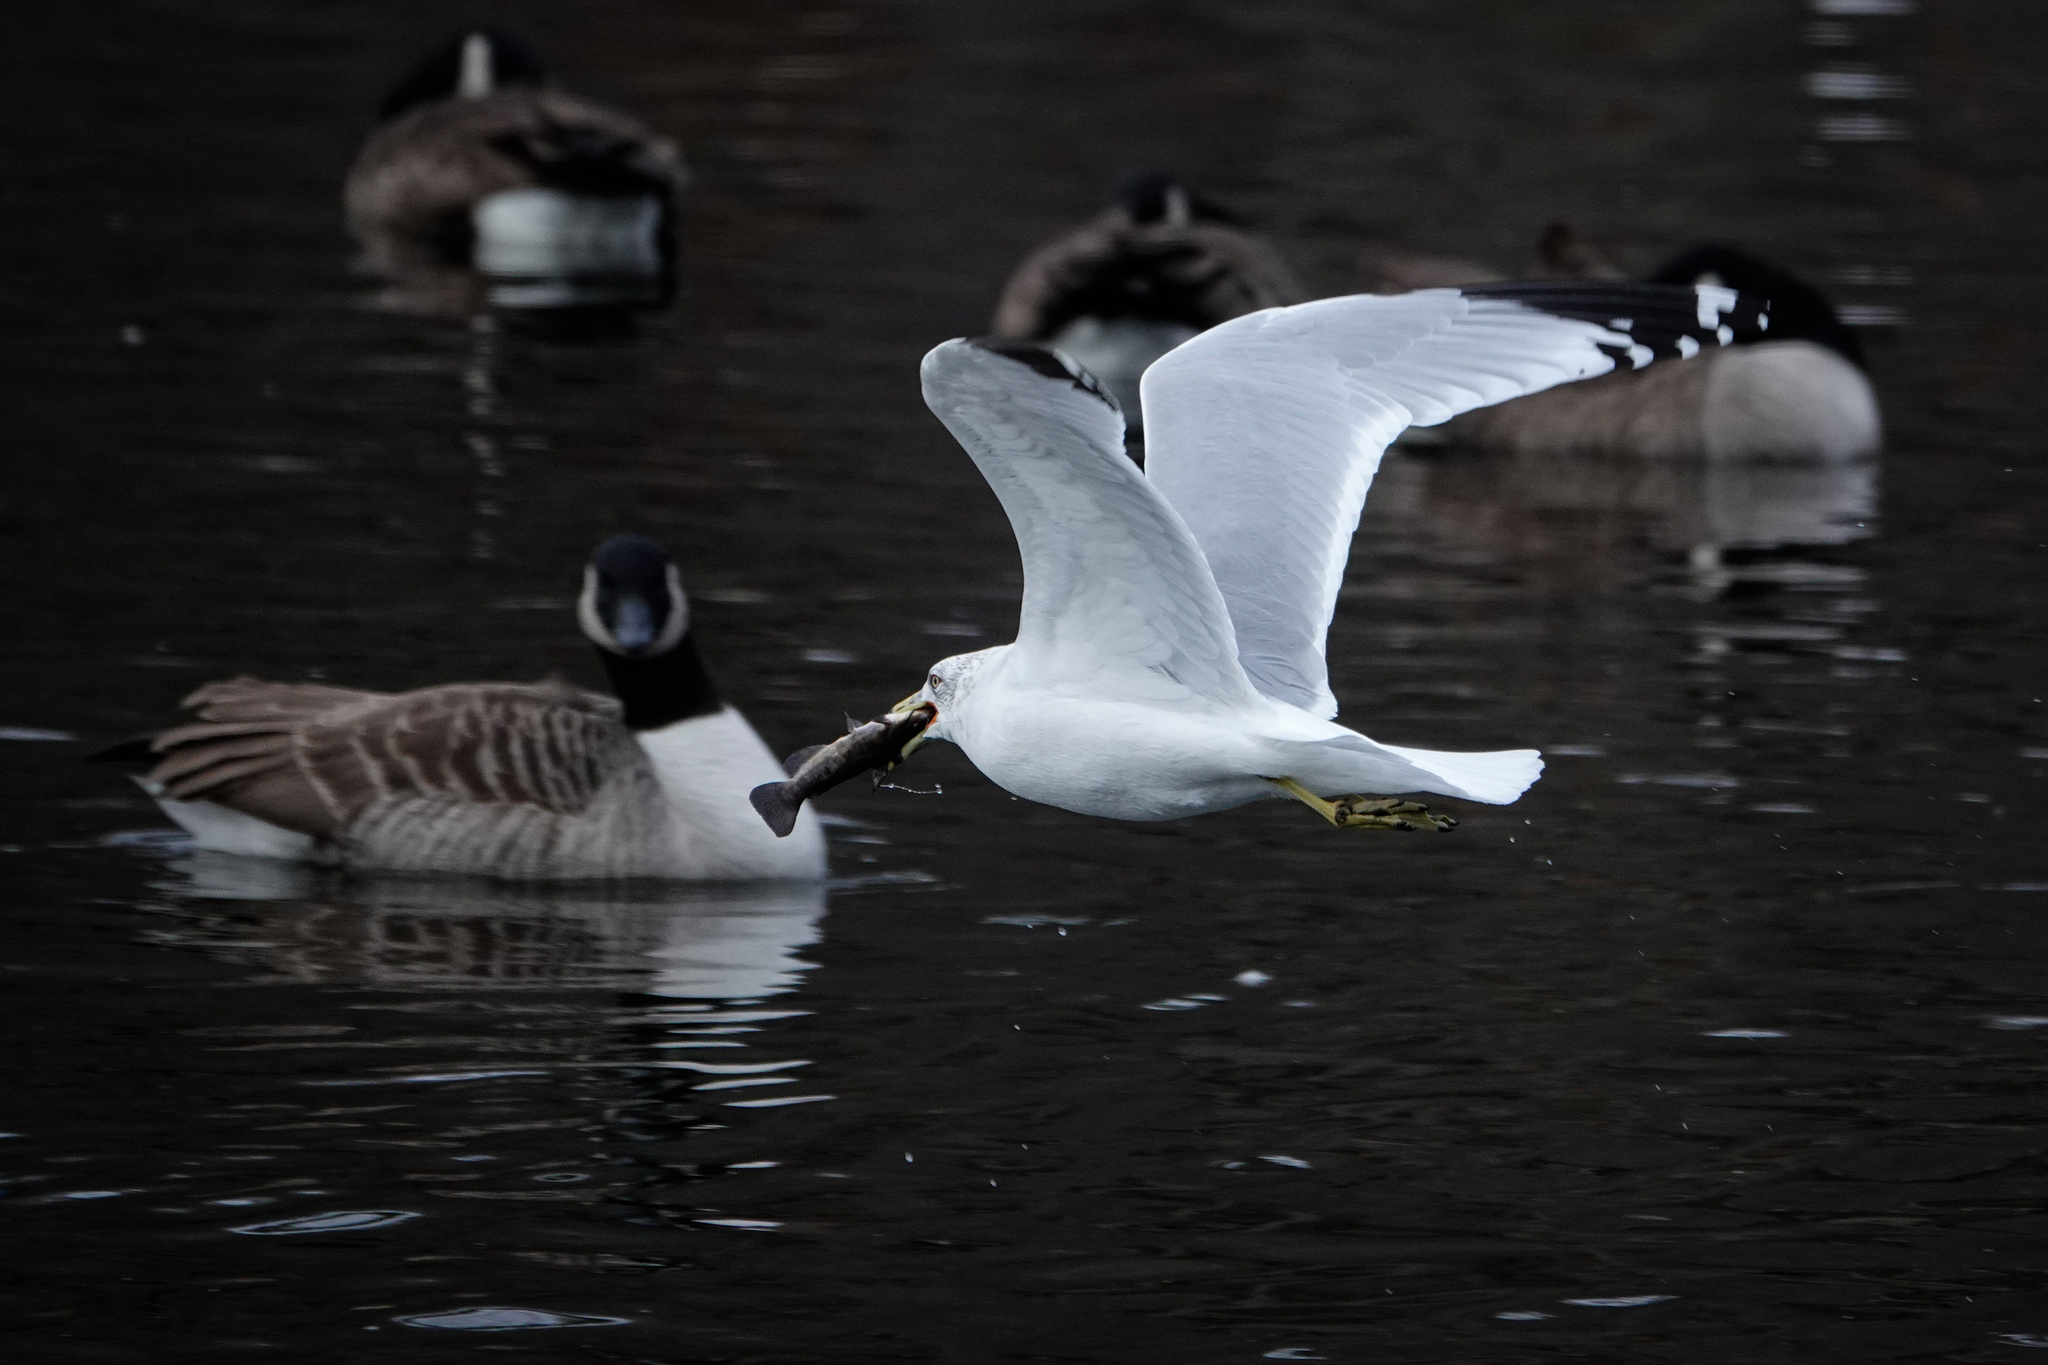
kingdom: Animalia
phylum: Chordata
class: Aves
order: Charadriiformes
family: Laridae
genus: Larus
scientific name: Larus delawarensis
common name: Ring-billed gull
